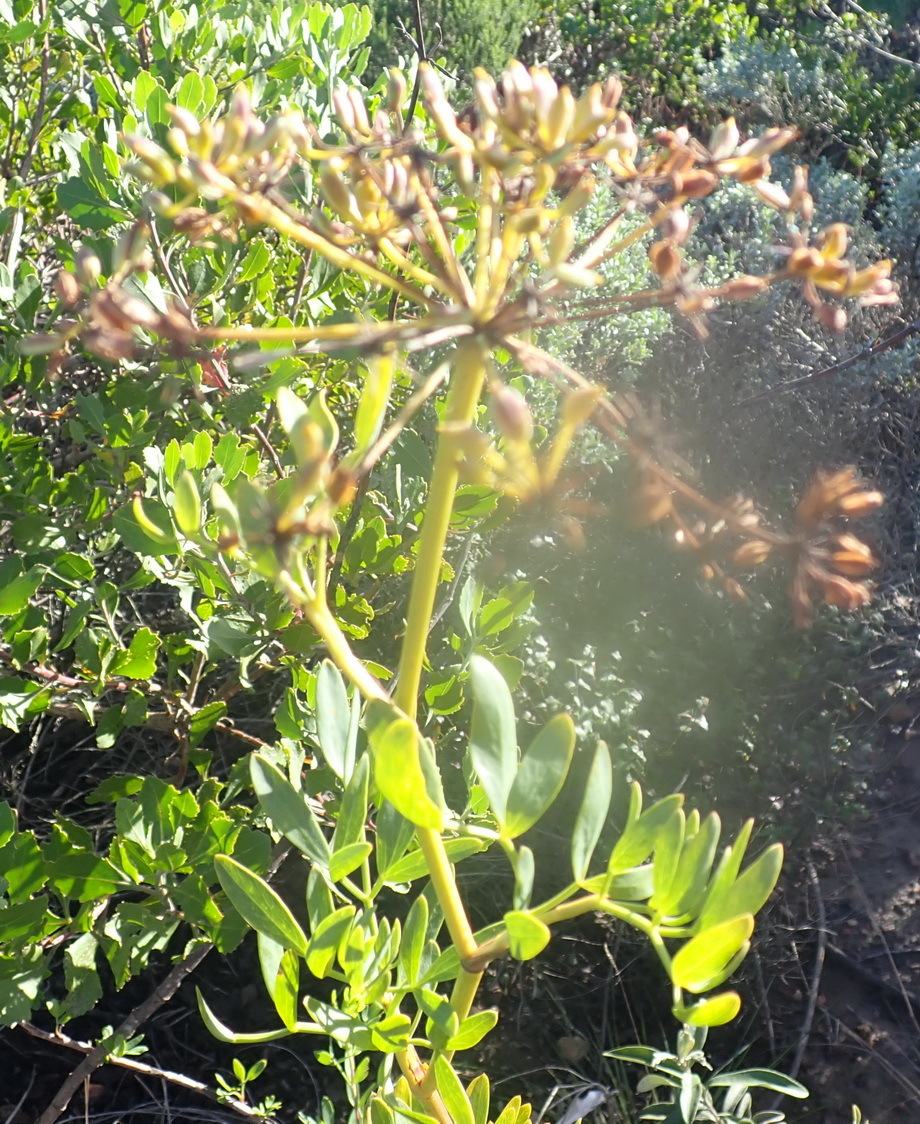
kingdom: Plantae
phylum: Tracheophyta
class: Magnoliopsida
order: Apiales
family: Apiaceae
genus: Notobubon
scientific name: Notobubon laevigatum
